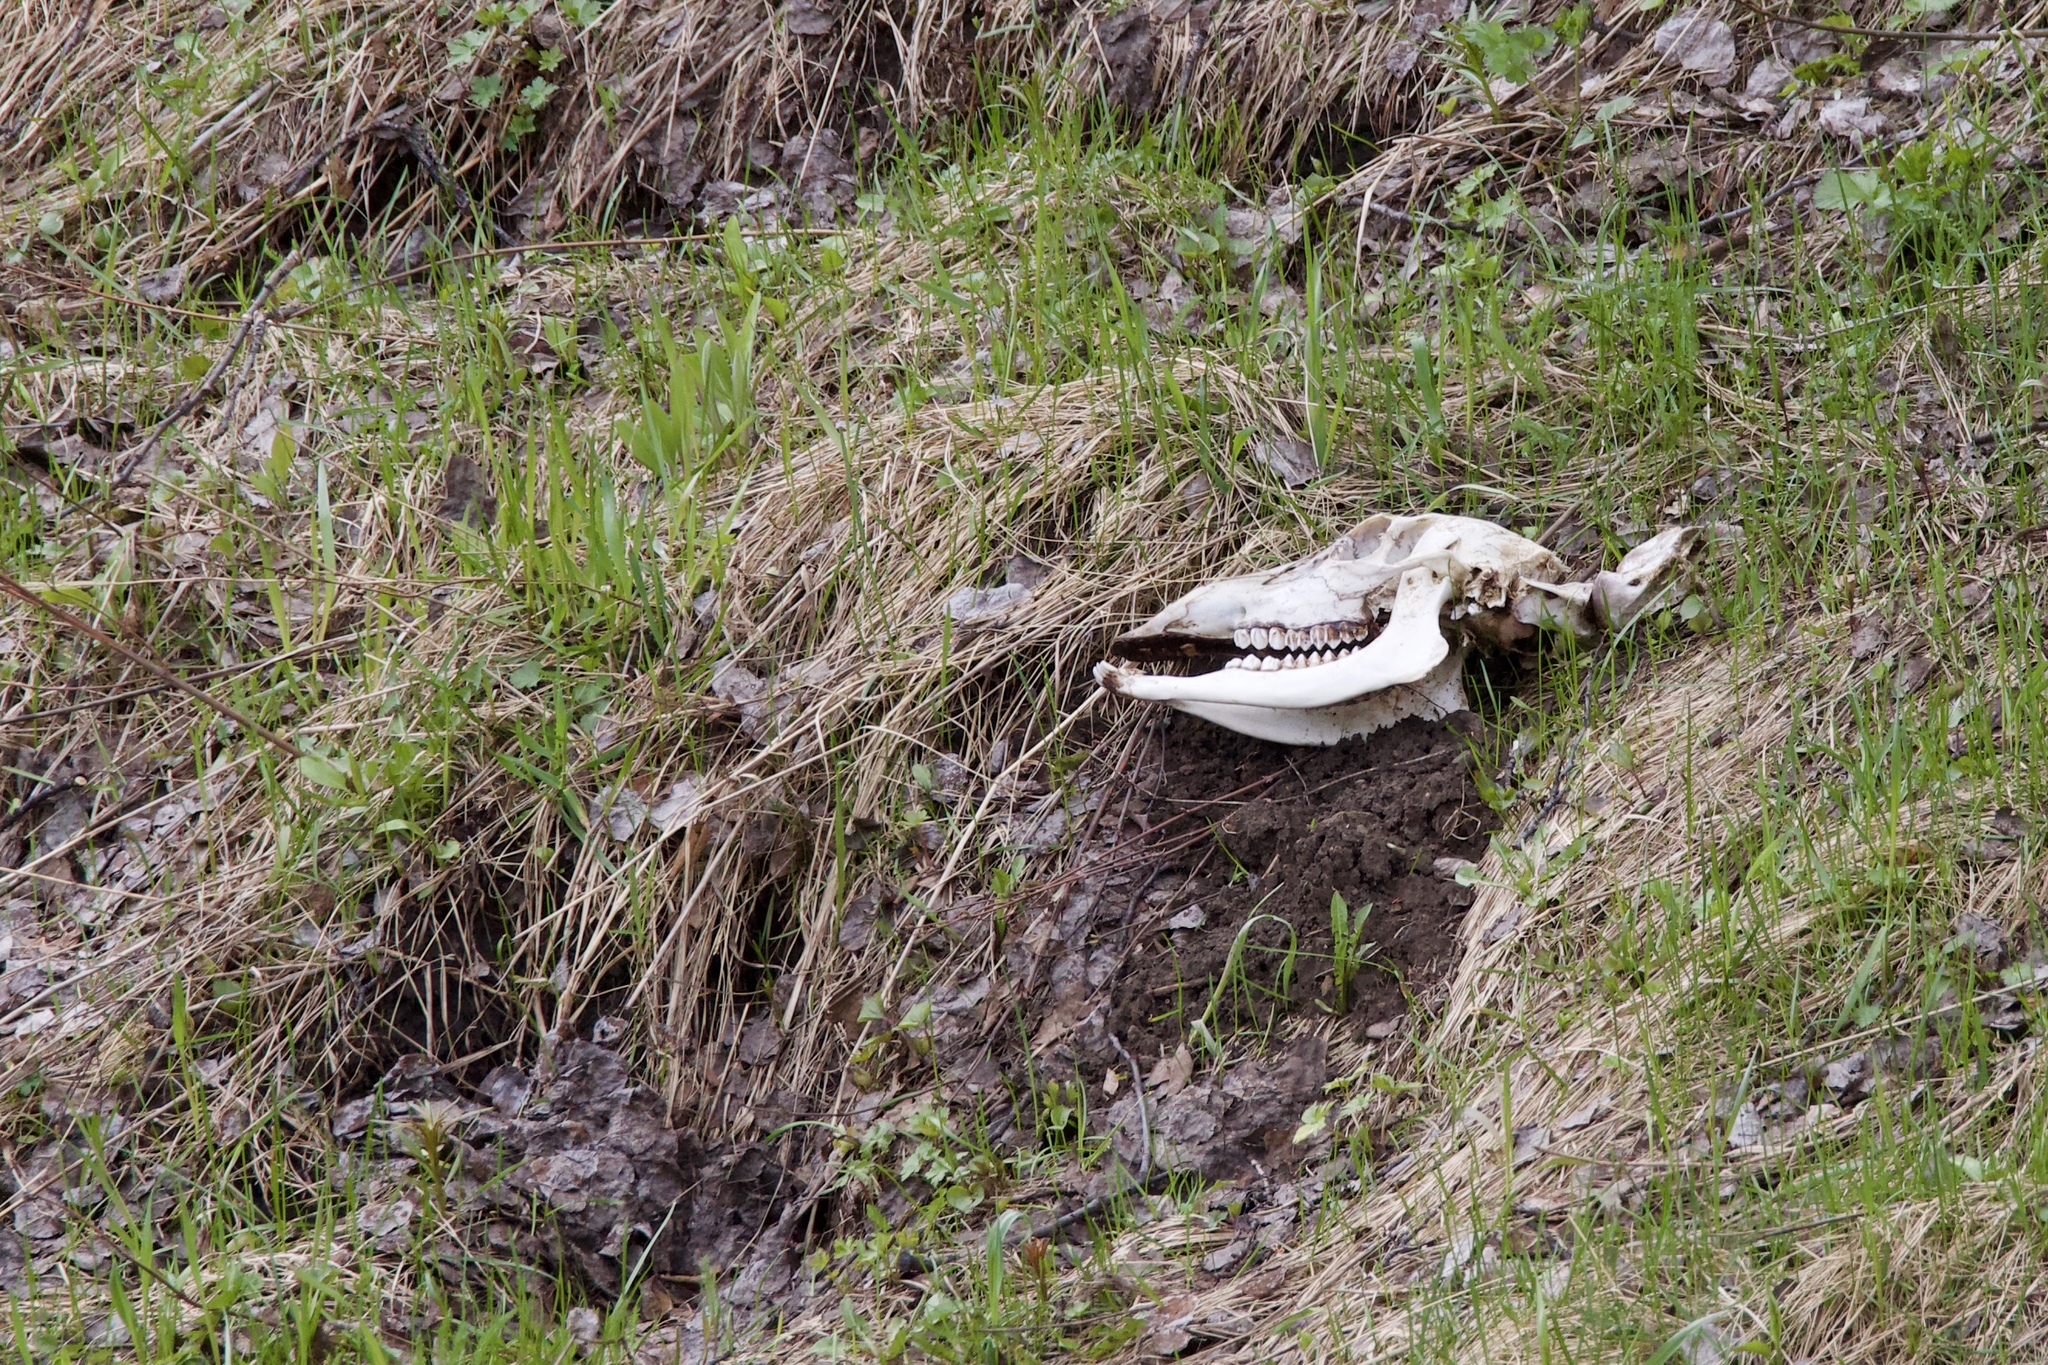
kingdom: Animalia
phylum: Chordata
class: Mammalia
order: Artiodactyla
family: Cervidae
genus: Cervus
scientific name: Cervus elaphus
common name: Red deer
